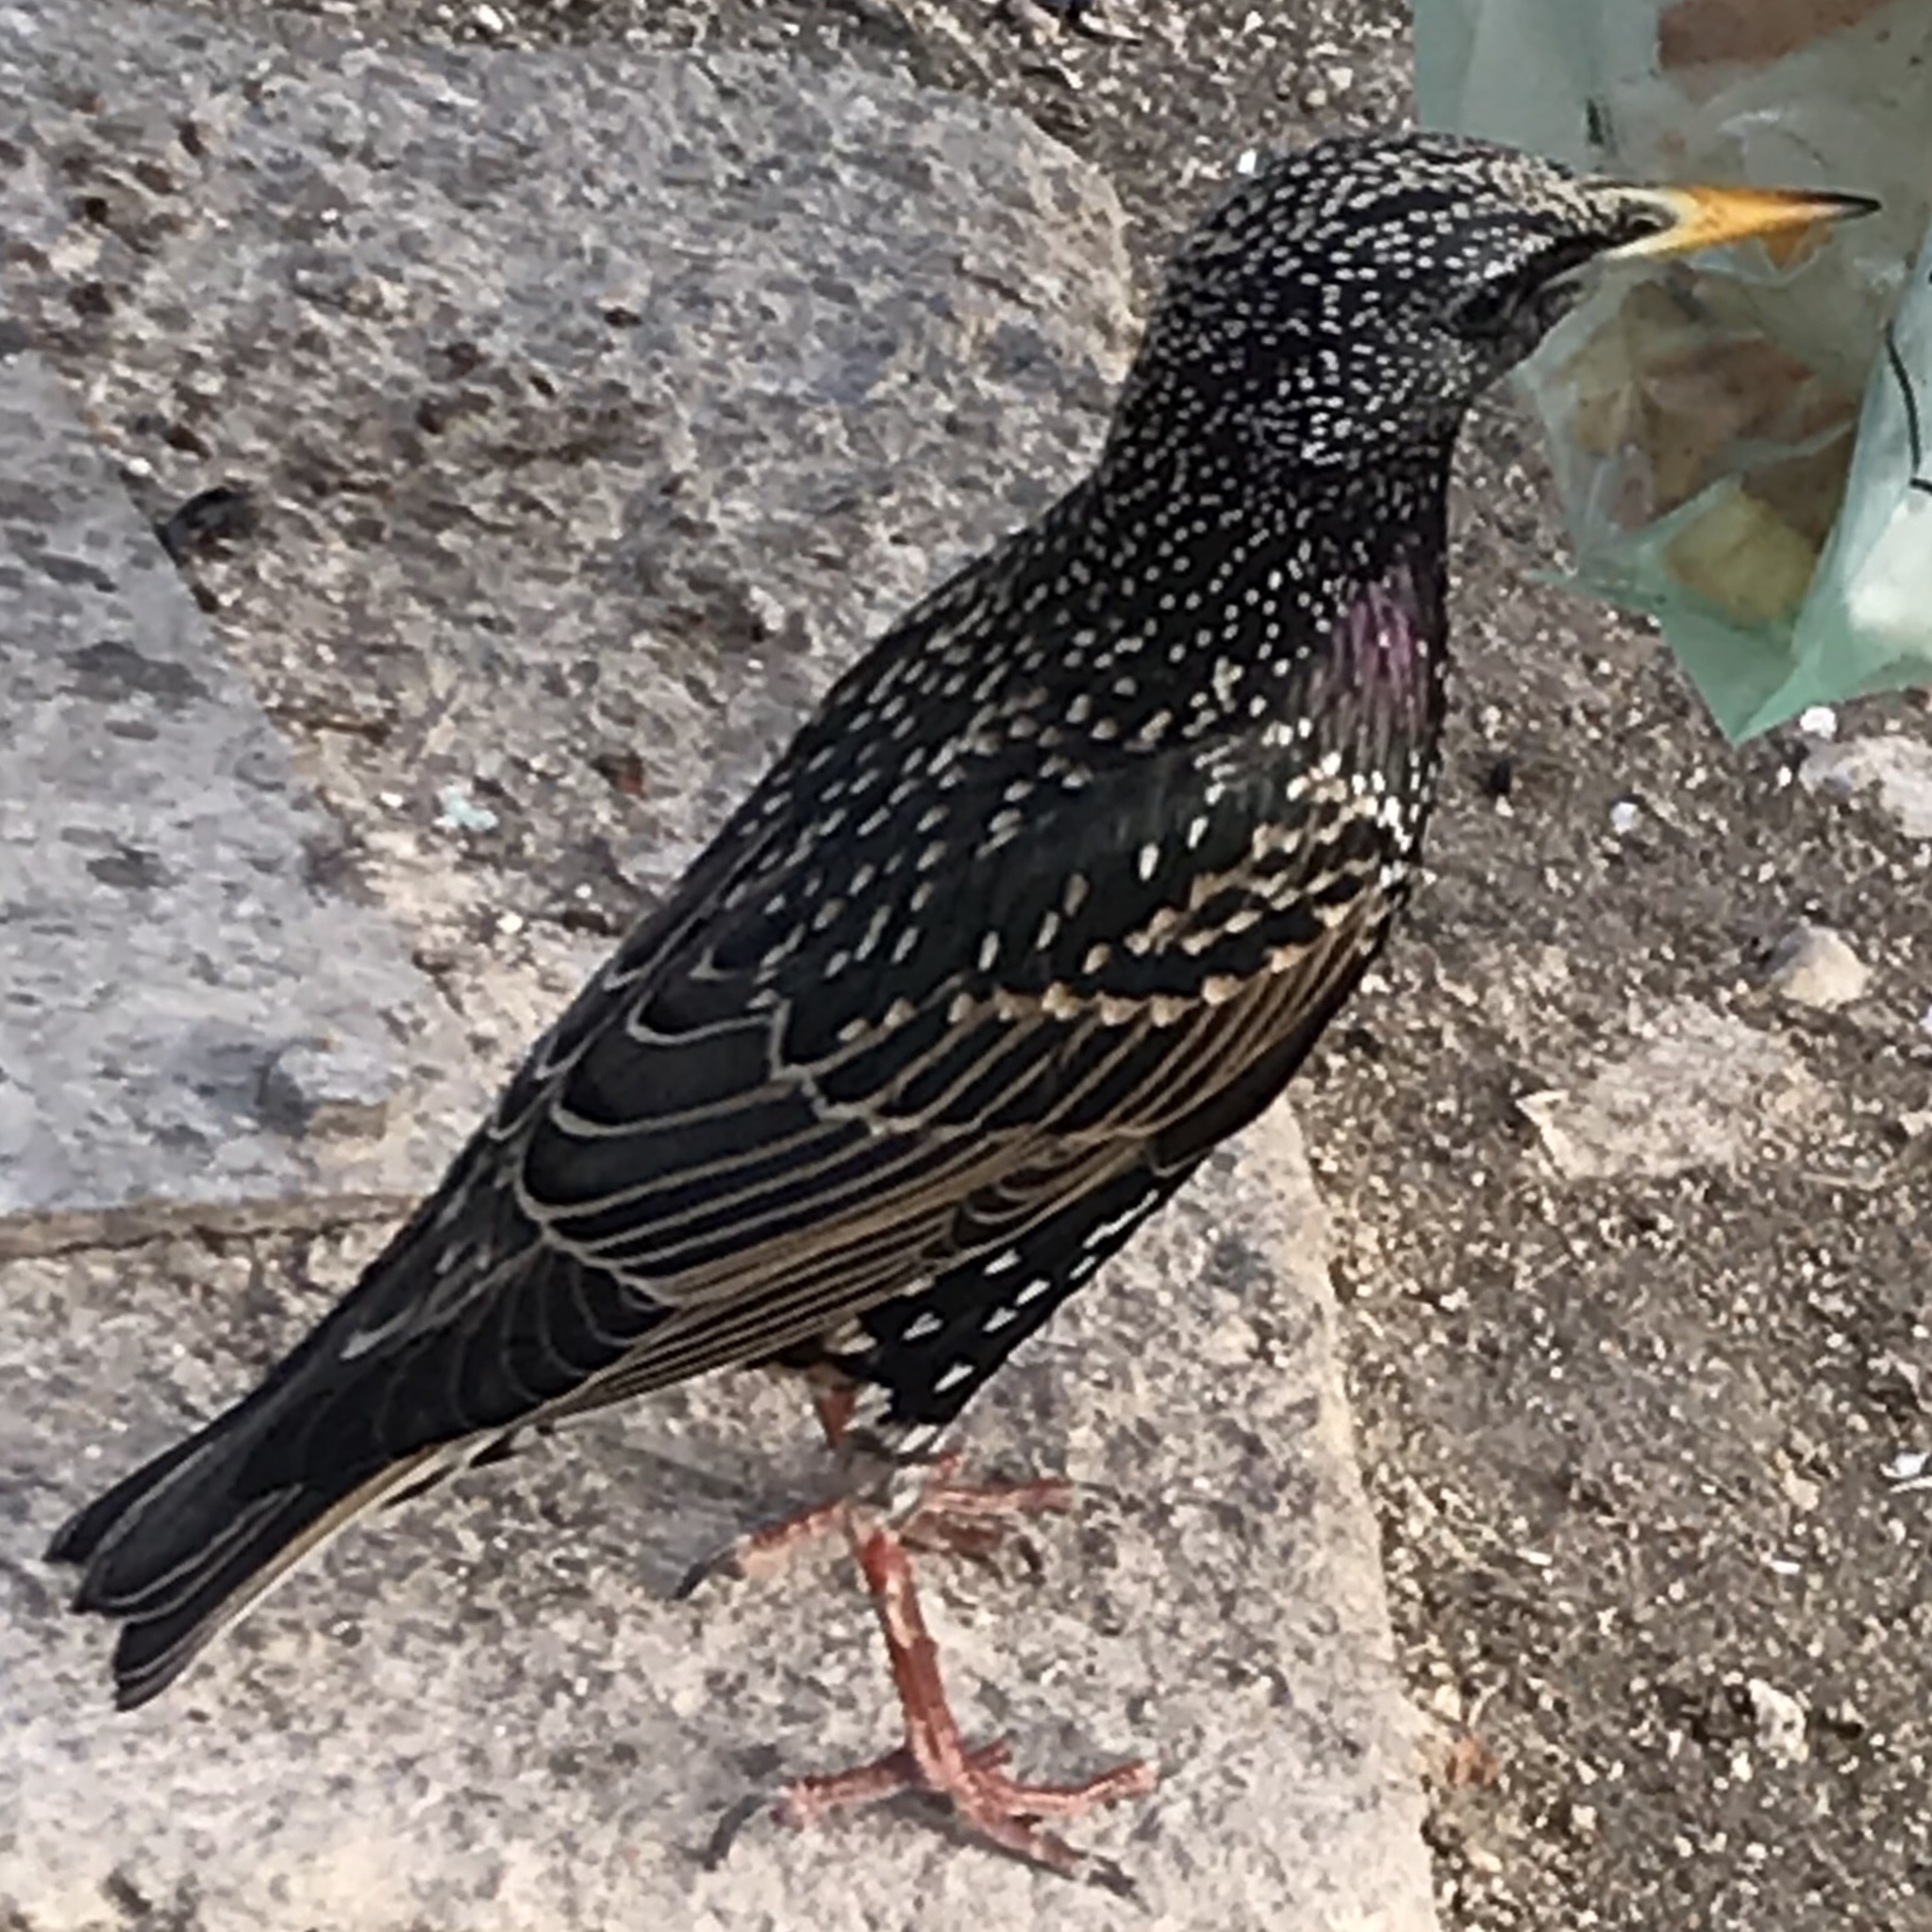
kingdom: Animalia
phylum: Chordata
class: Aves
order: Passeriformes
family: Sturnidae
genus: Sturnus
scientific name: Sturnus vulgaris
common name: Common starling
